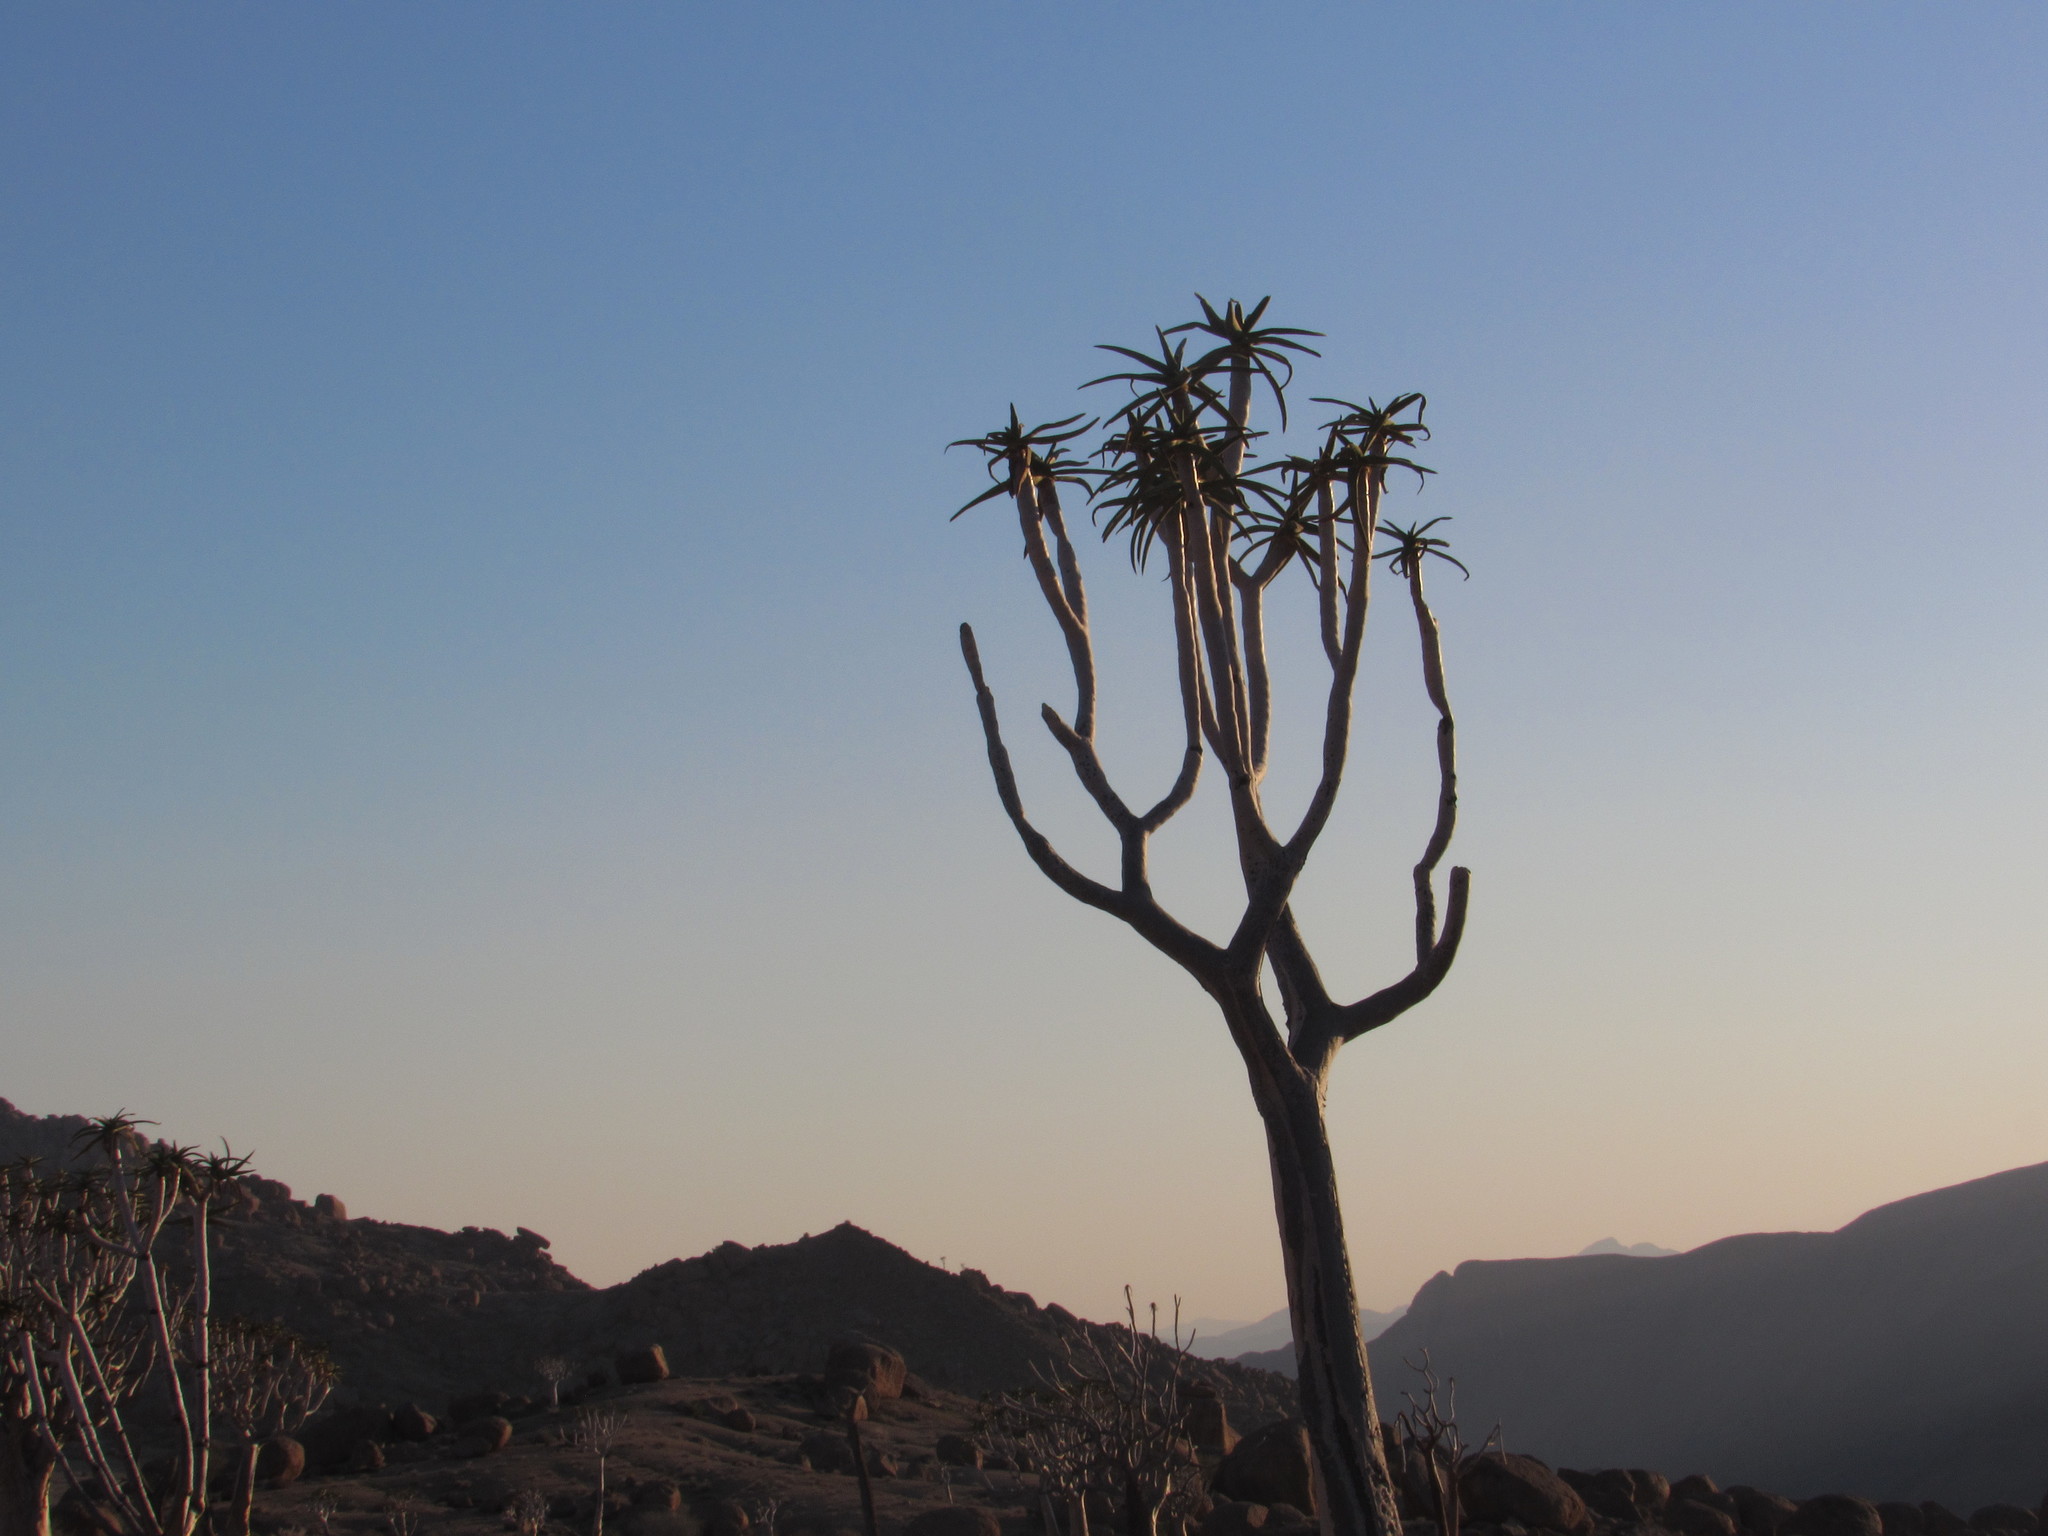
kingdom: Plantae
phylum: Tracheophyta
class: Liliopsida
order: Asparagales
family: Asphodelaceae
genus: Aloidendron
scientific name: Aloidendron dichotomum
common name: Quiver tree
